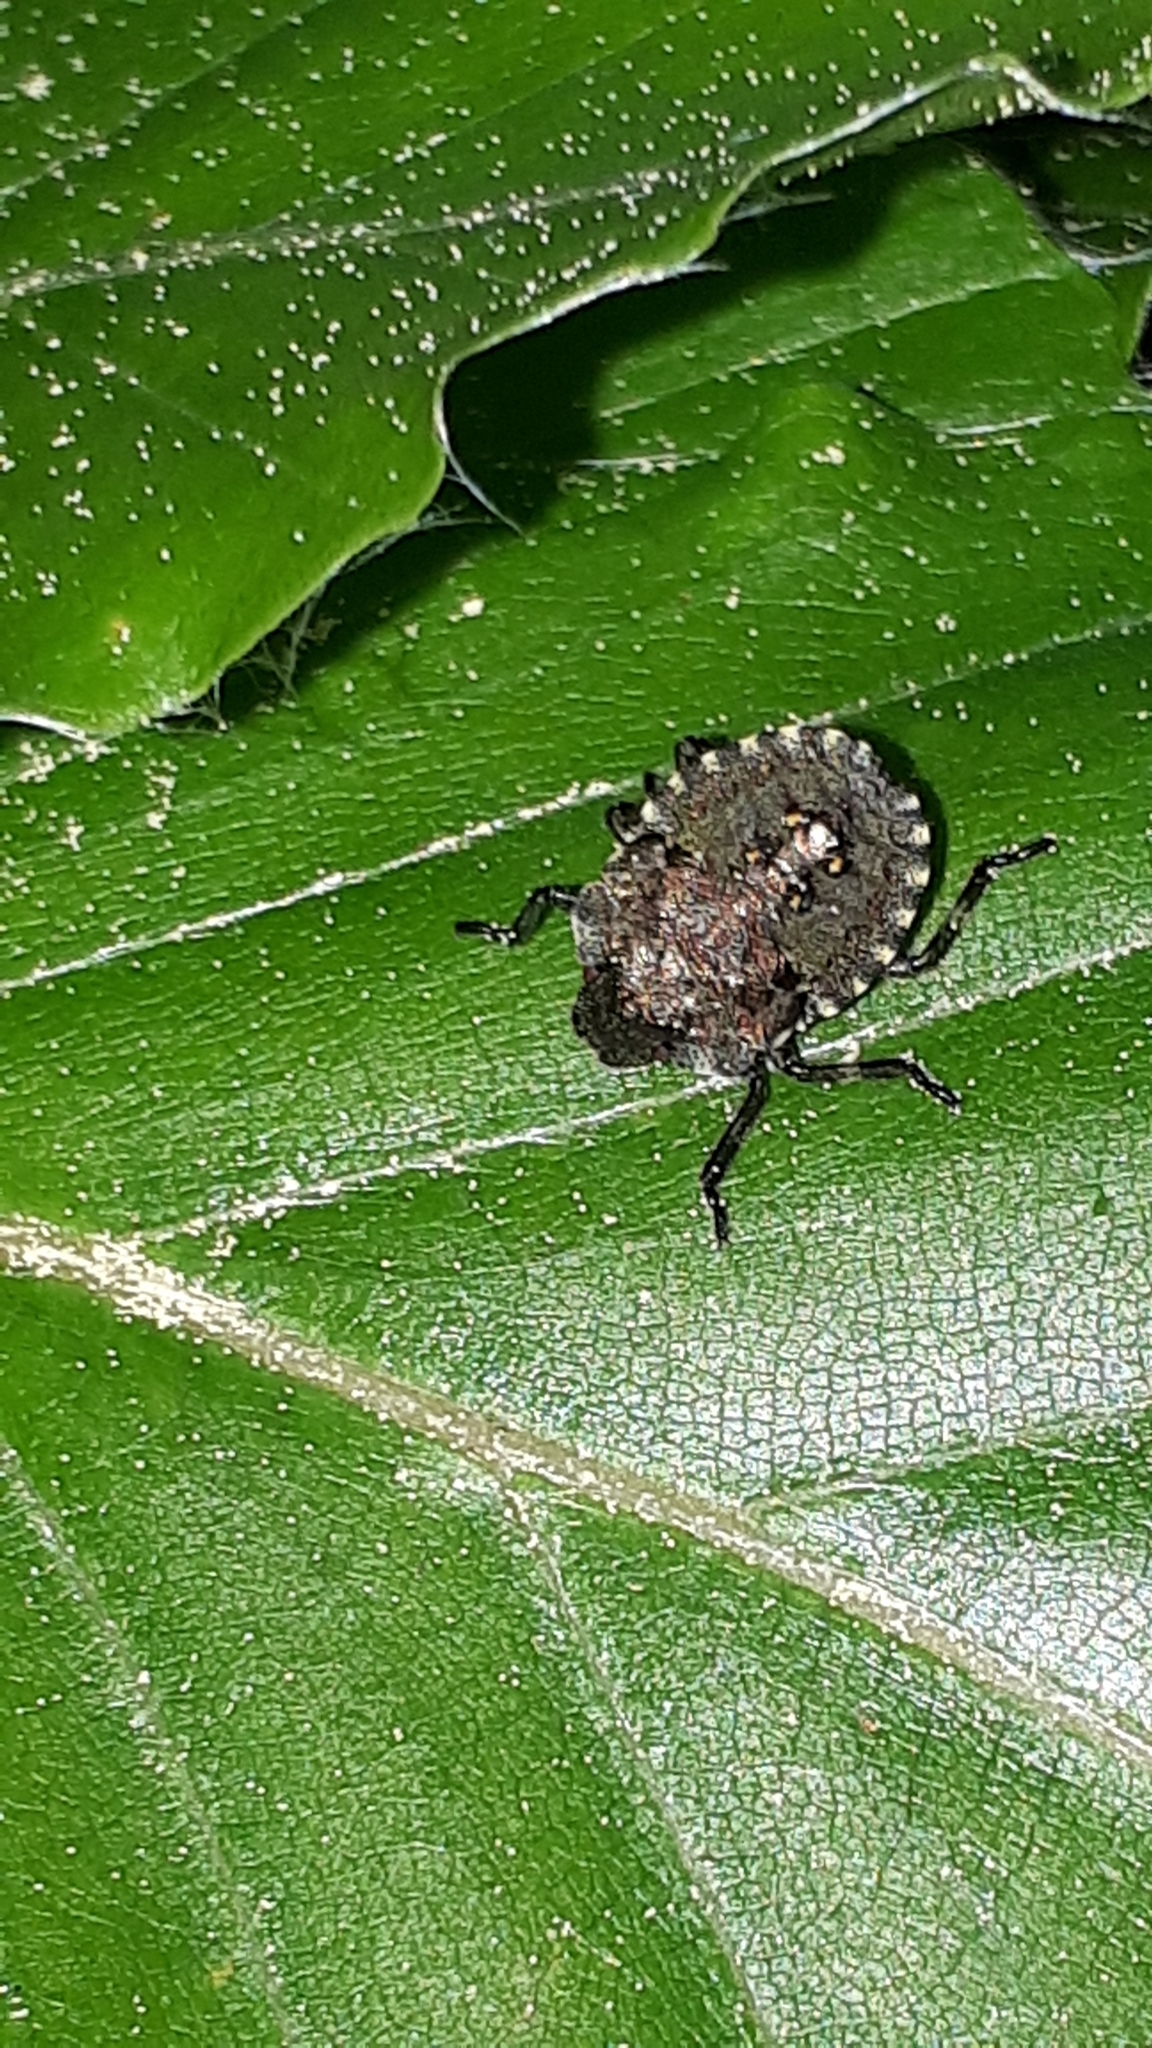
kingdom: Animalia
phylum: Arthropoda
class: Insecta
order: Hemiptera
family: Pentatomidae
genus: Pentatoma
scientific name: Pentatoma rufipes
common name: Forest bug
